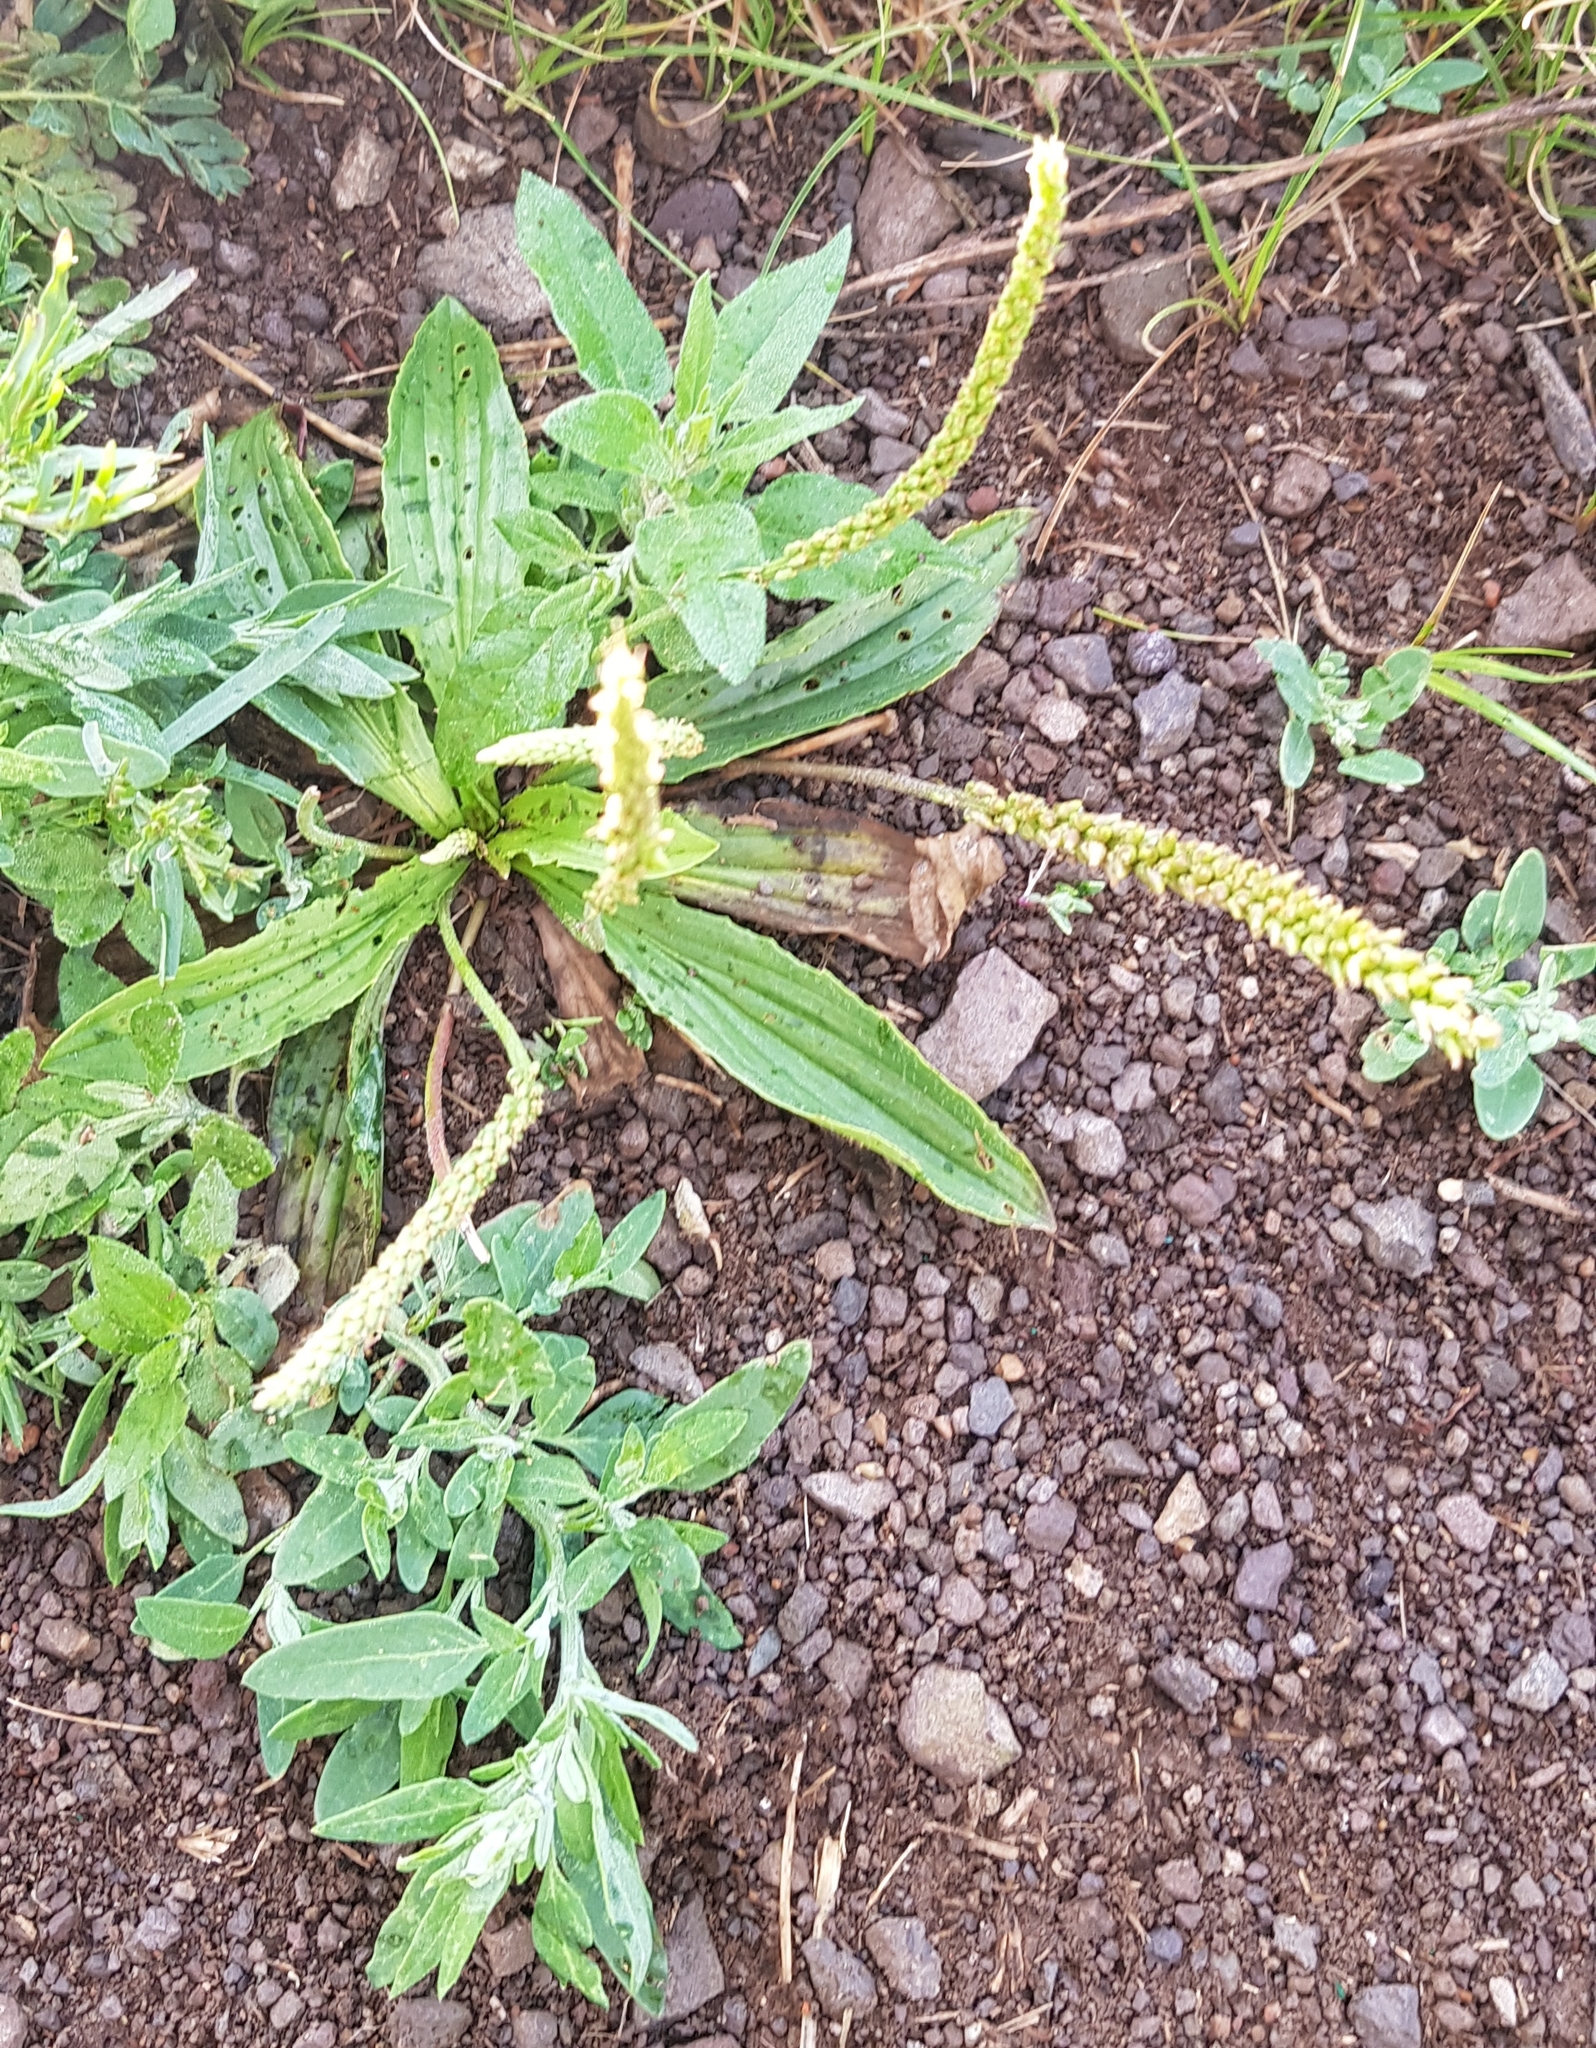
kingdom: Plantae
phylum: Tracheophyta
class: Magnoliopsida
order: Lamiales
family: Plantaginaceae
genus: Plantago
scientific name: Plantago depressa
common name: Depressed plantain
